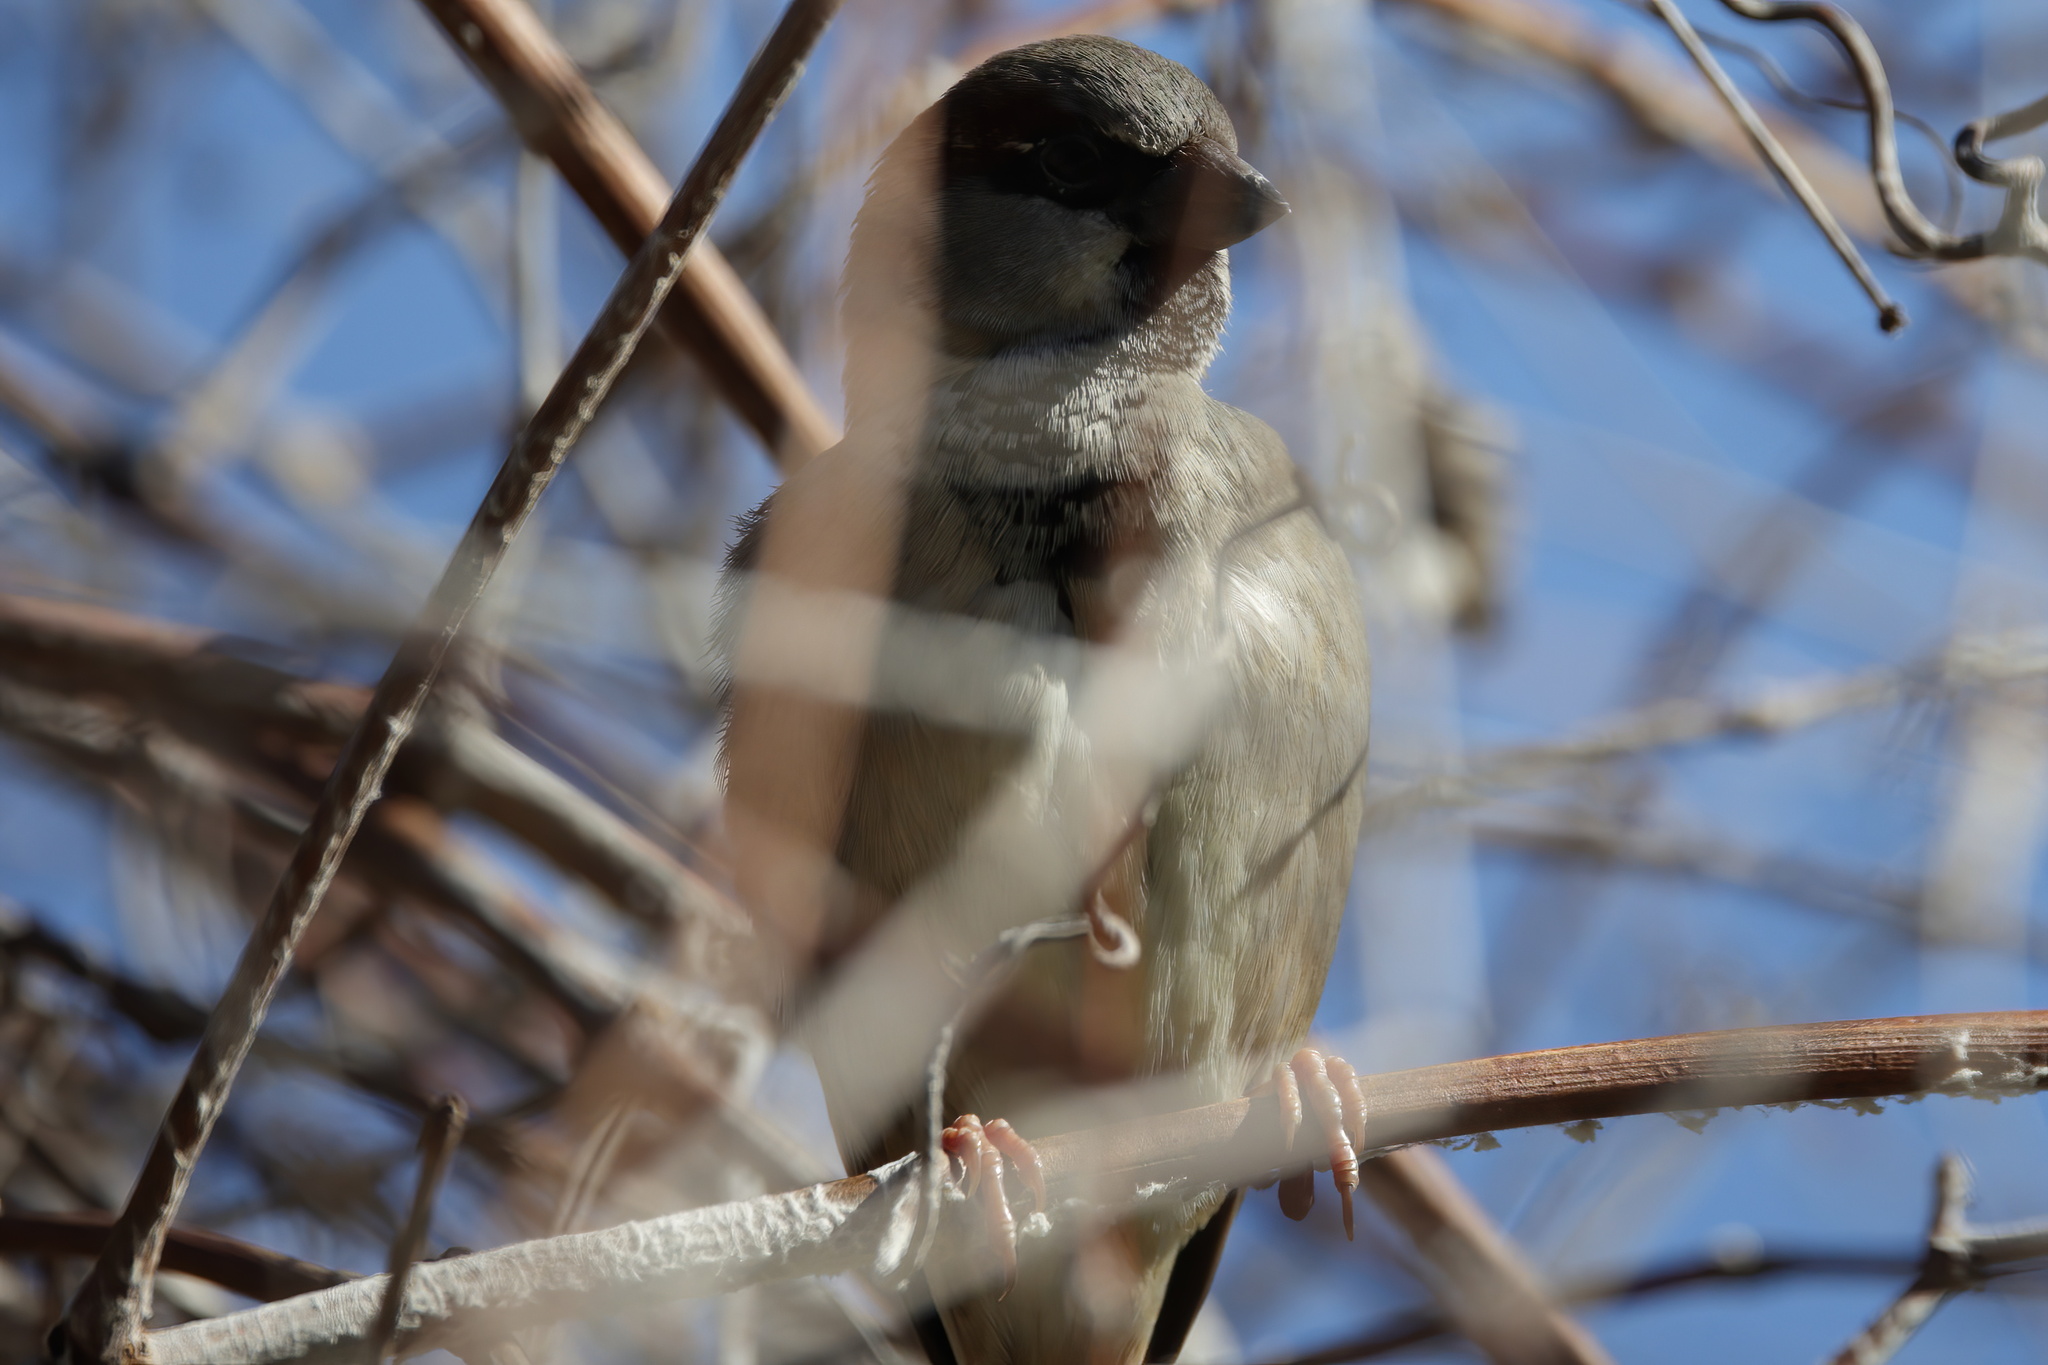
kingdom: Animalia
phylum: Chordata
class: Aves
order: Passeriformes
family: Passeridae
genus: Passer
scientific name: Passer domesticus
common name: House sparrow
